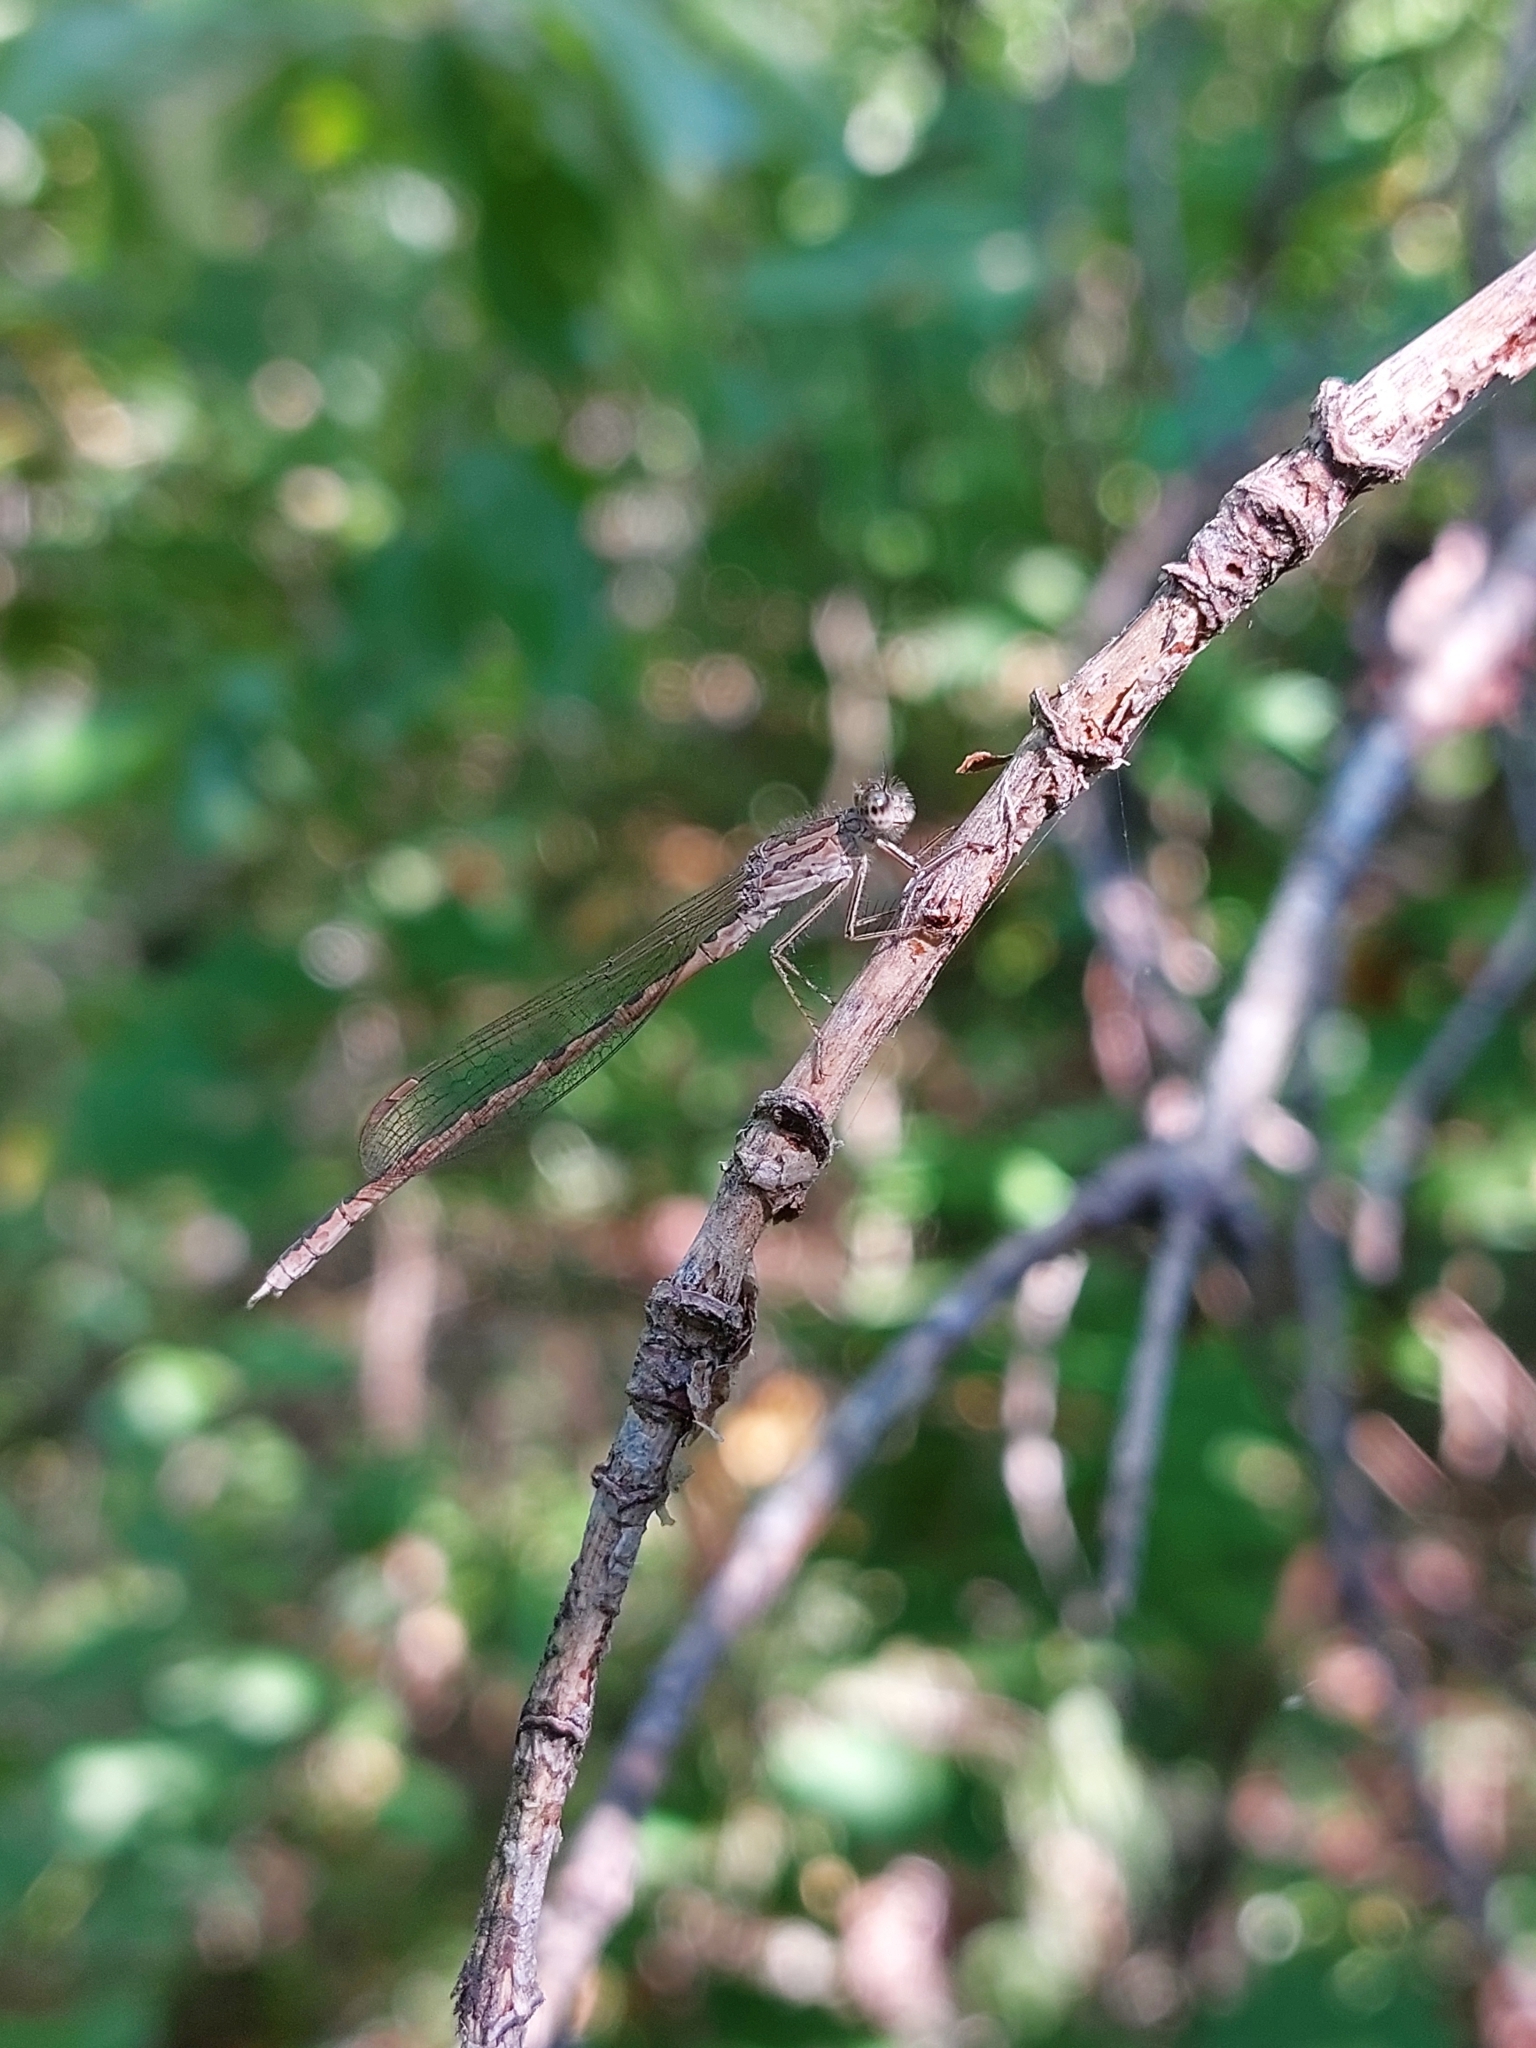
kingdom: Animalia
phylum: Arthropoda
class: Insecta
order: Odonata
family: Lestidae
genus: Sympecma
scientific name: Sympecma paedisca
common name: Siberian winter damsel
